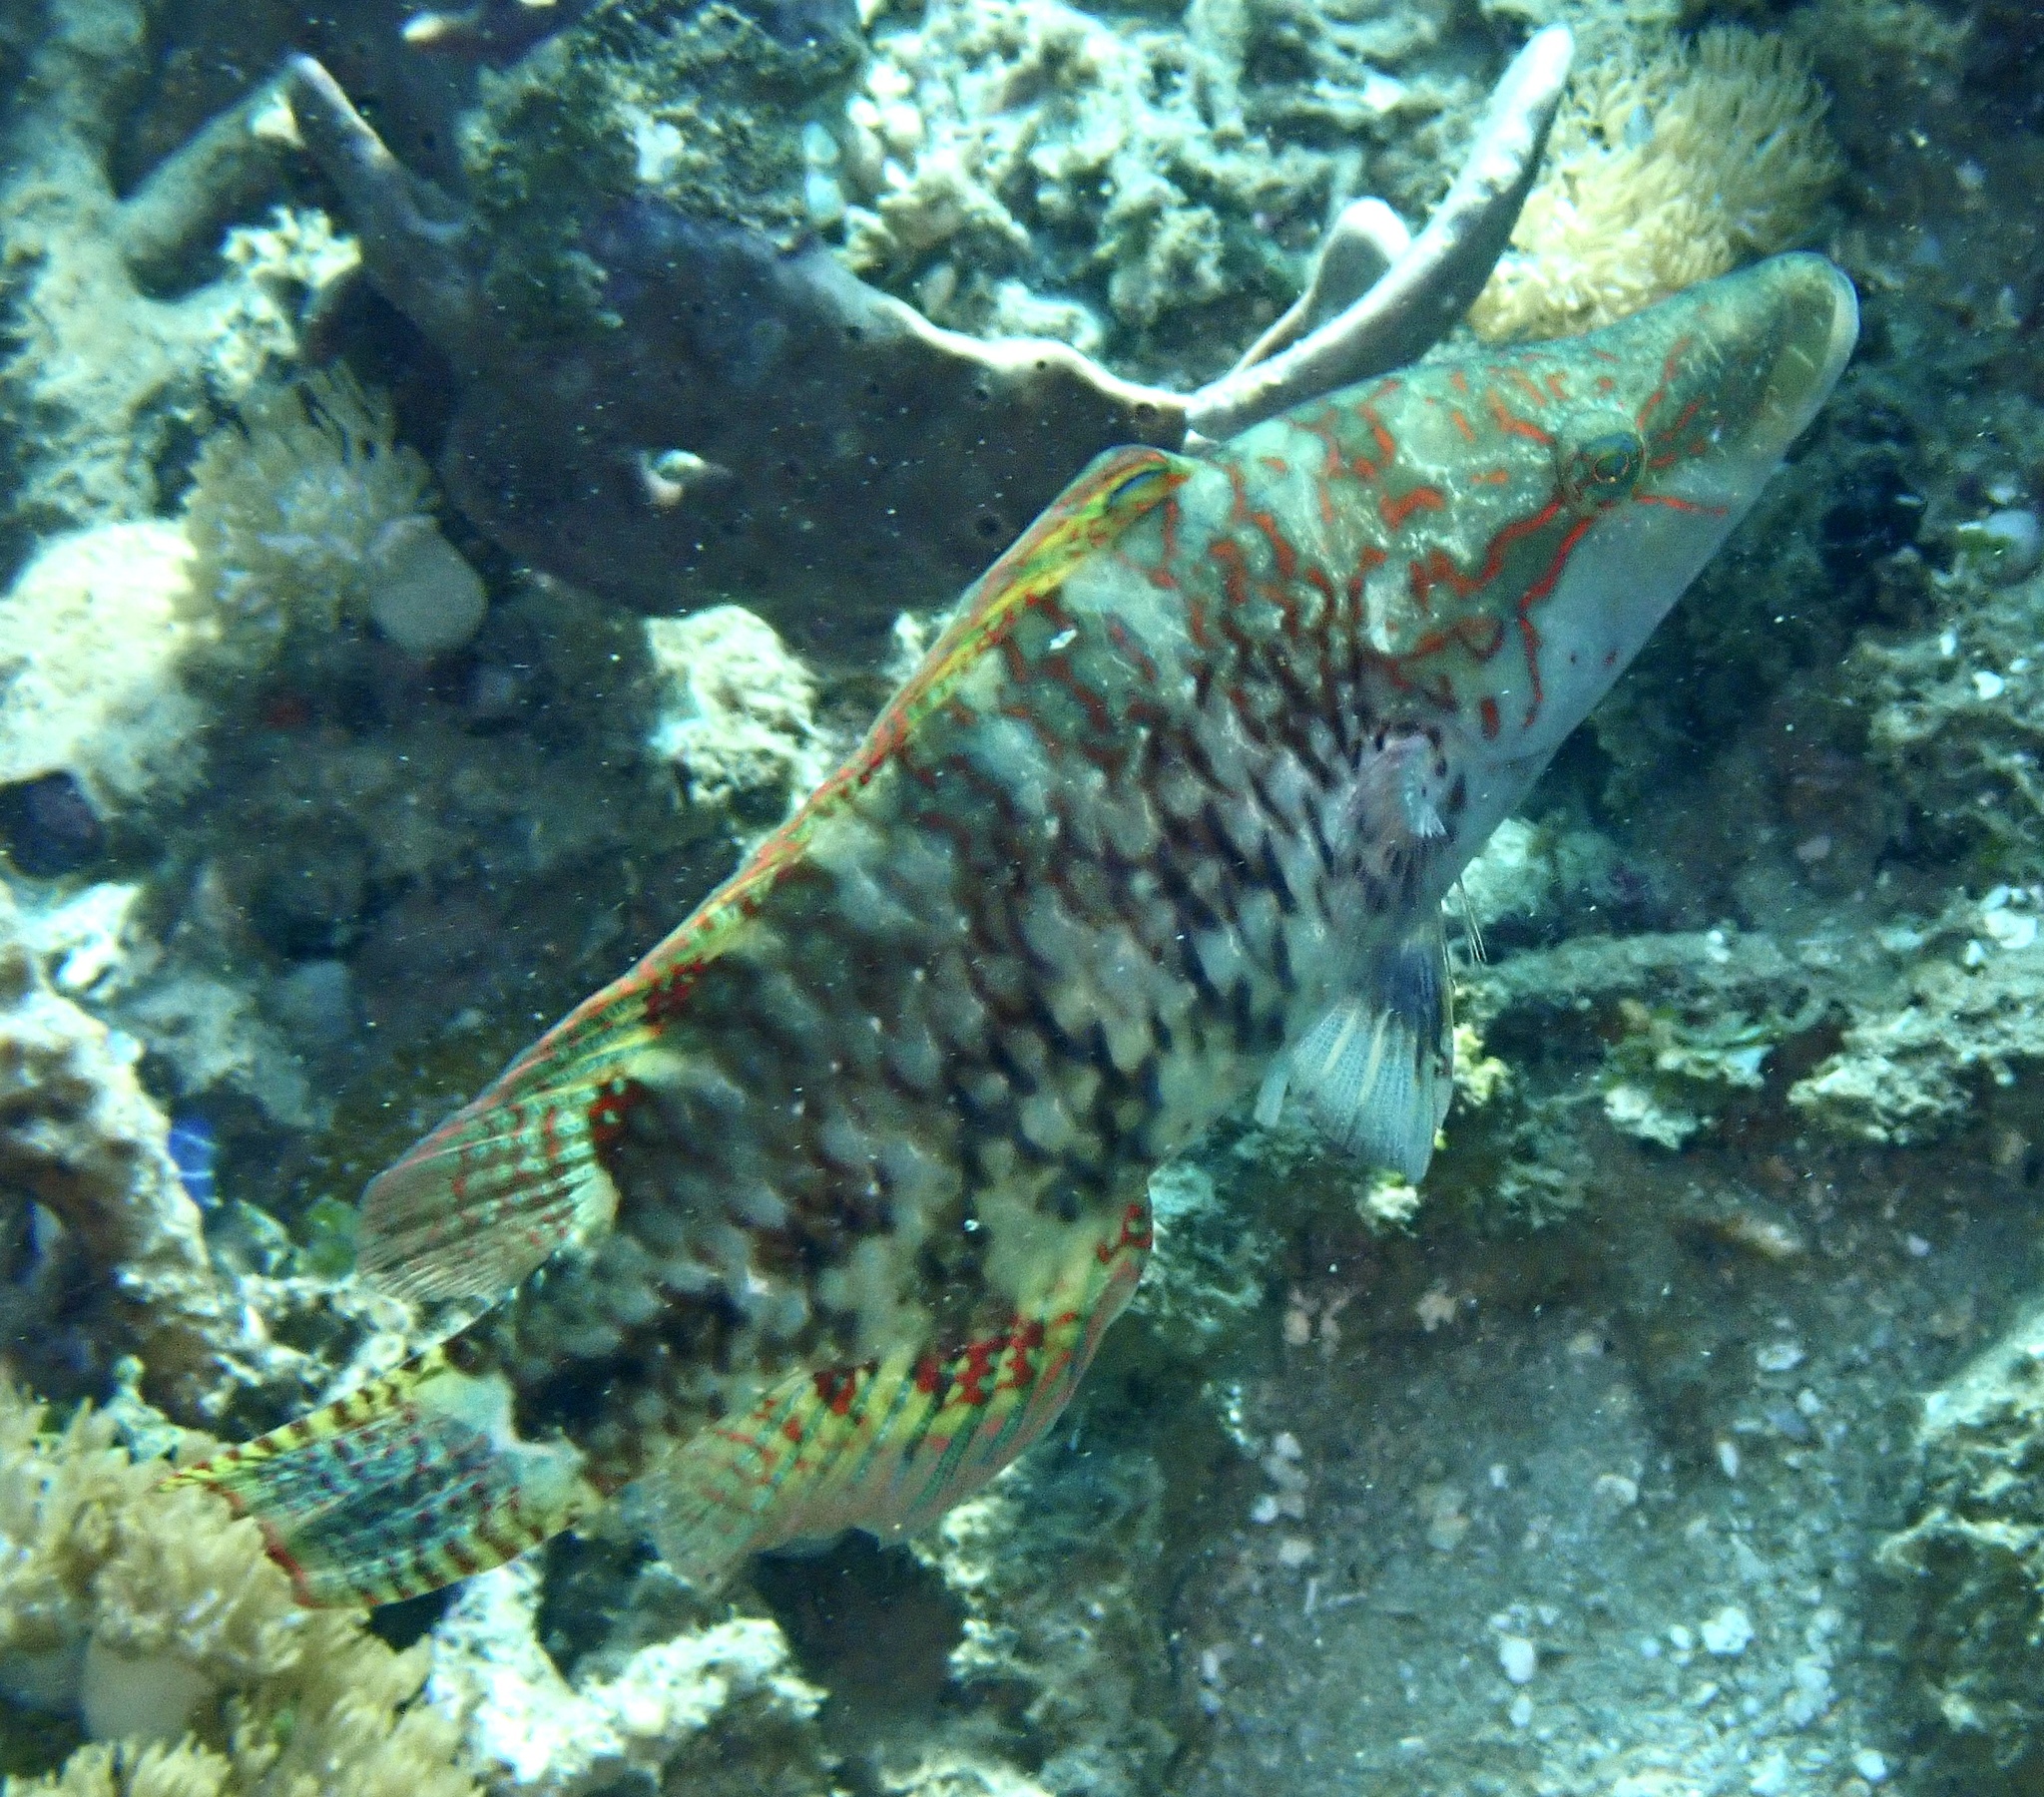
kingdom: Animalia
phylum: Chordata
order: Perciformes
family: Labridae
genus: Oxycheilinus
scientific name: Oxycheilinus celebicus
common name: Celebes maori wrasse
